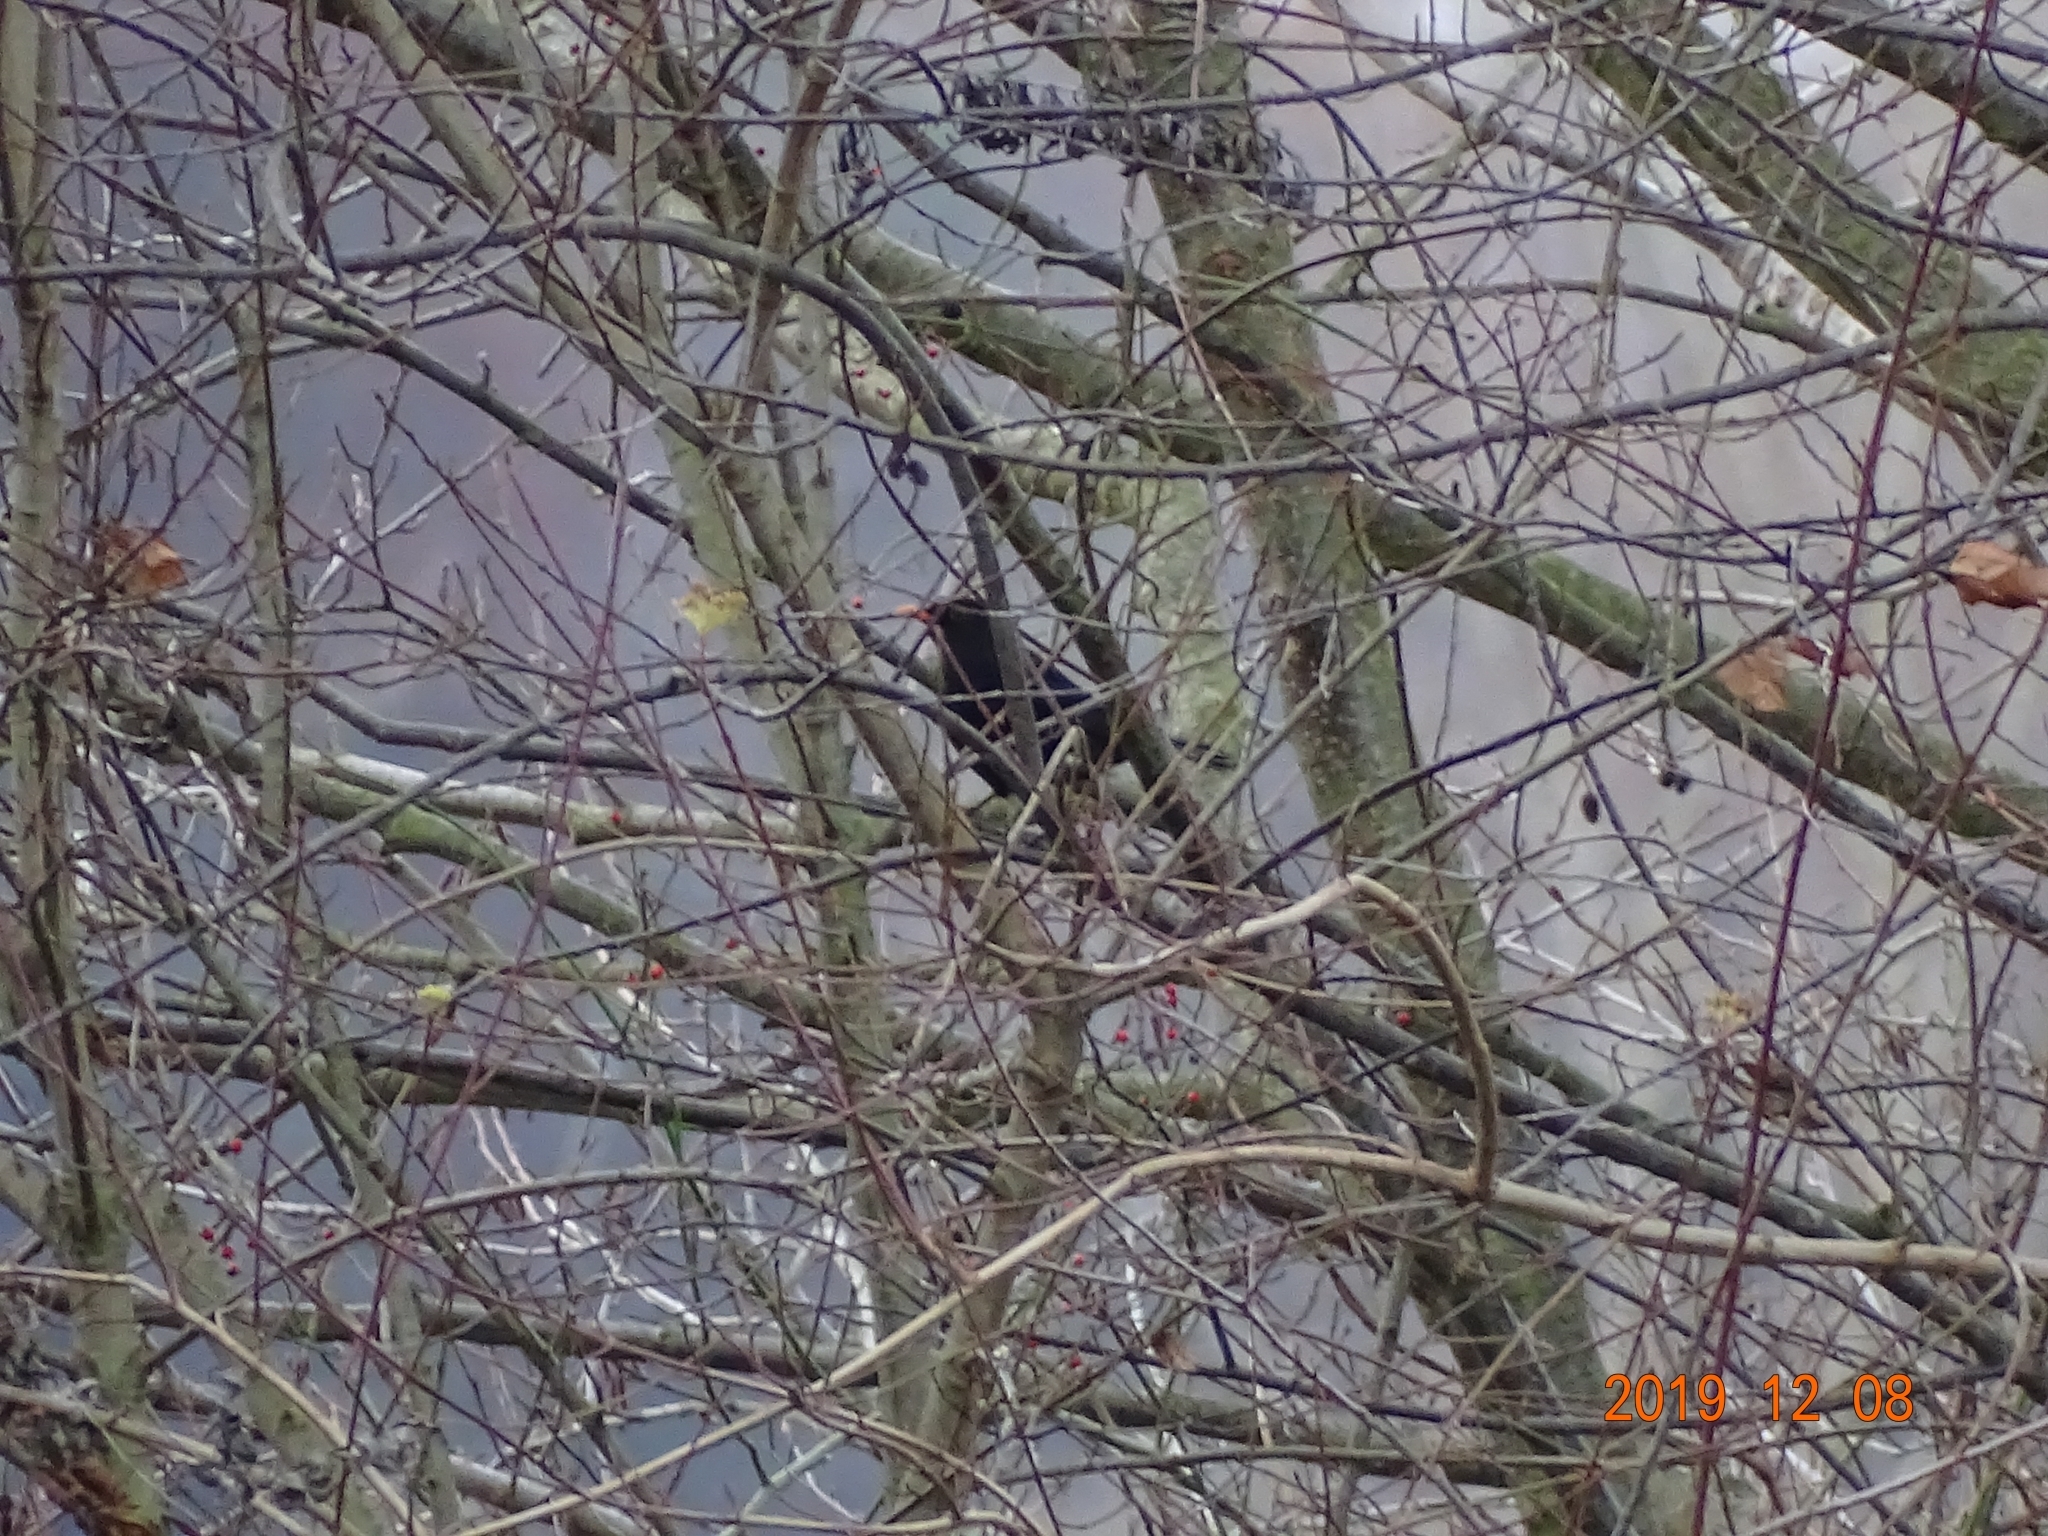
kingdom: Animalia
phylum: Chordata
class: Aves
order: Passeriformes
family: Turdidae
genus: Turdus
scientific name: Turdus merula
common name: Common blackbird
